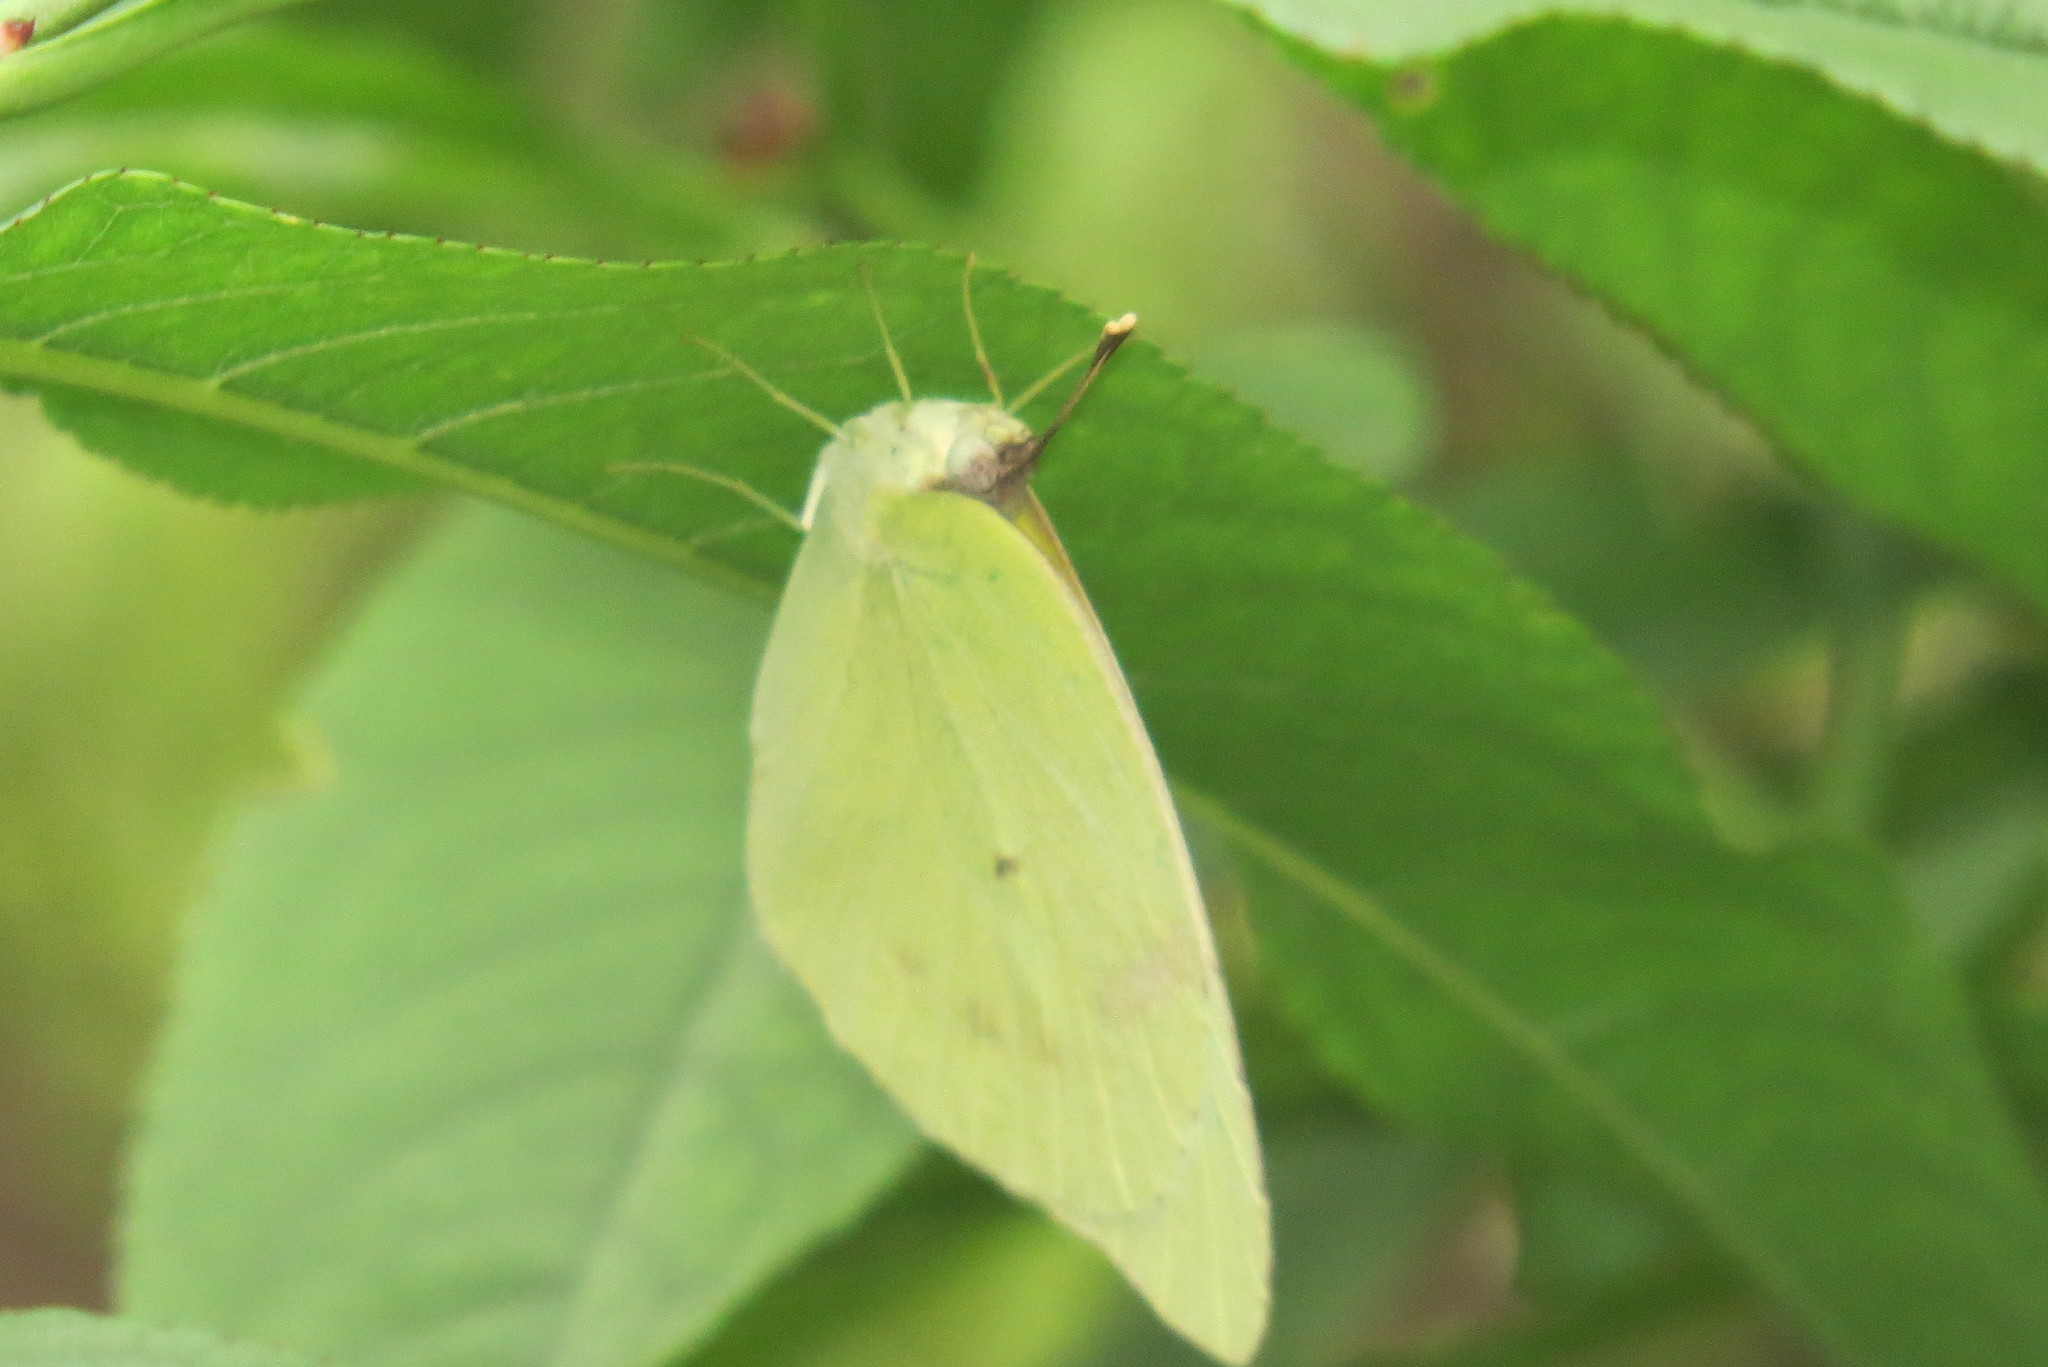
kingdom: Animalia
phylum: Arthropoda
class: Insecta
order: Lepidoptera
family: Pieridae
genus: Kricogonia
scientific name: Kricogonia lyside
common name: Guayacan sulphur,
